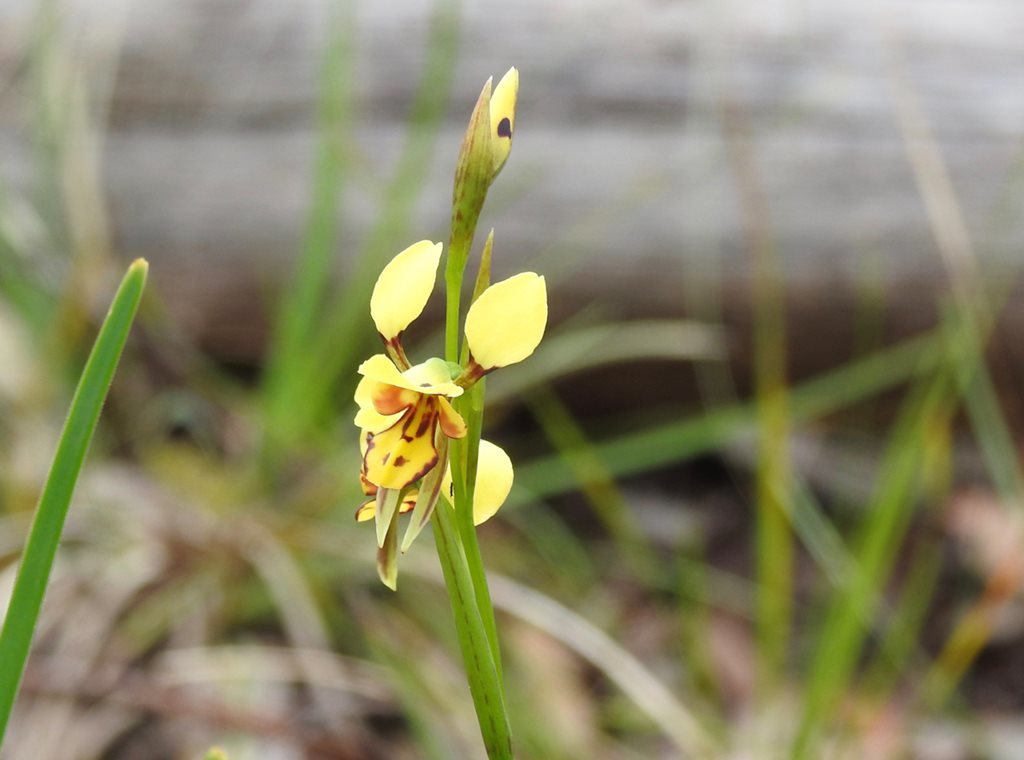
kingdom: Plantae
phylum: Tracheophyta
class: Liliopsida
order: Asparagales
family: Orchidaceae
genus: Diuris
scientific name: Diuris sulphurea
